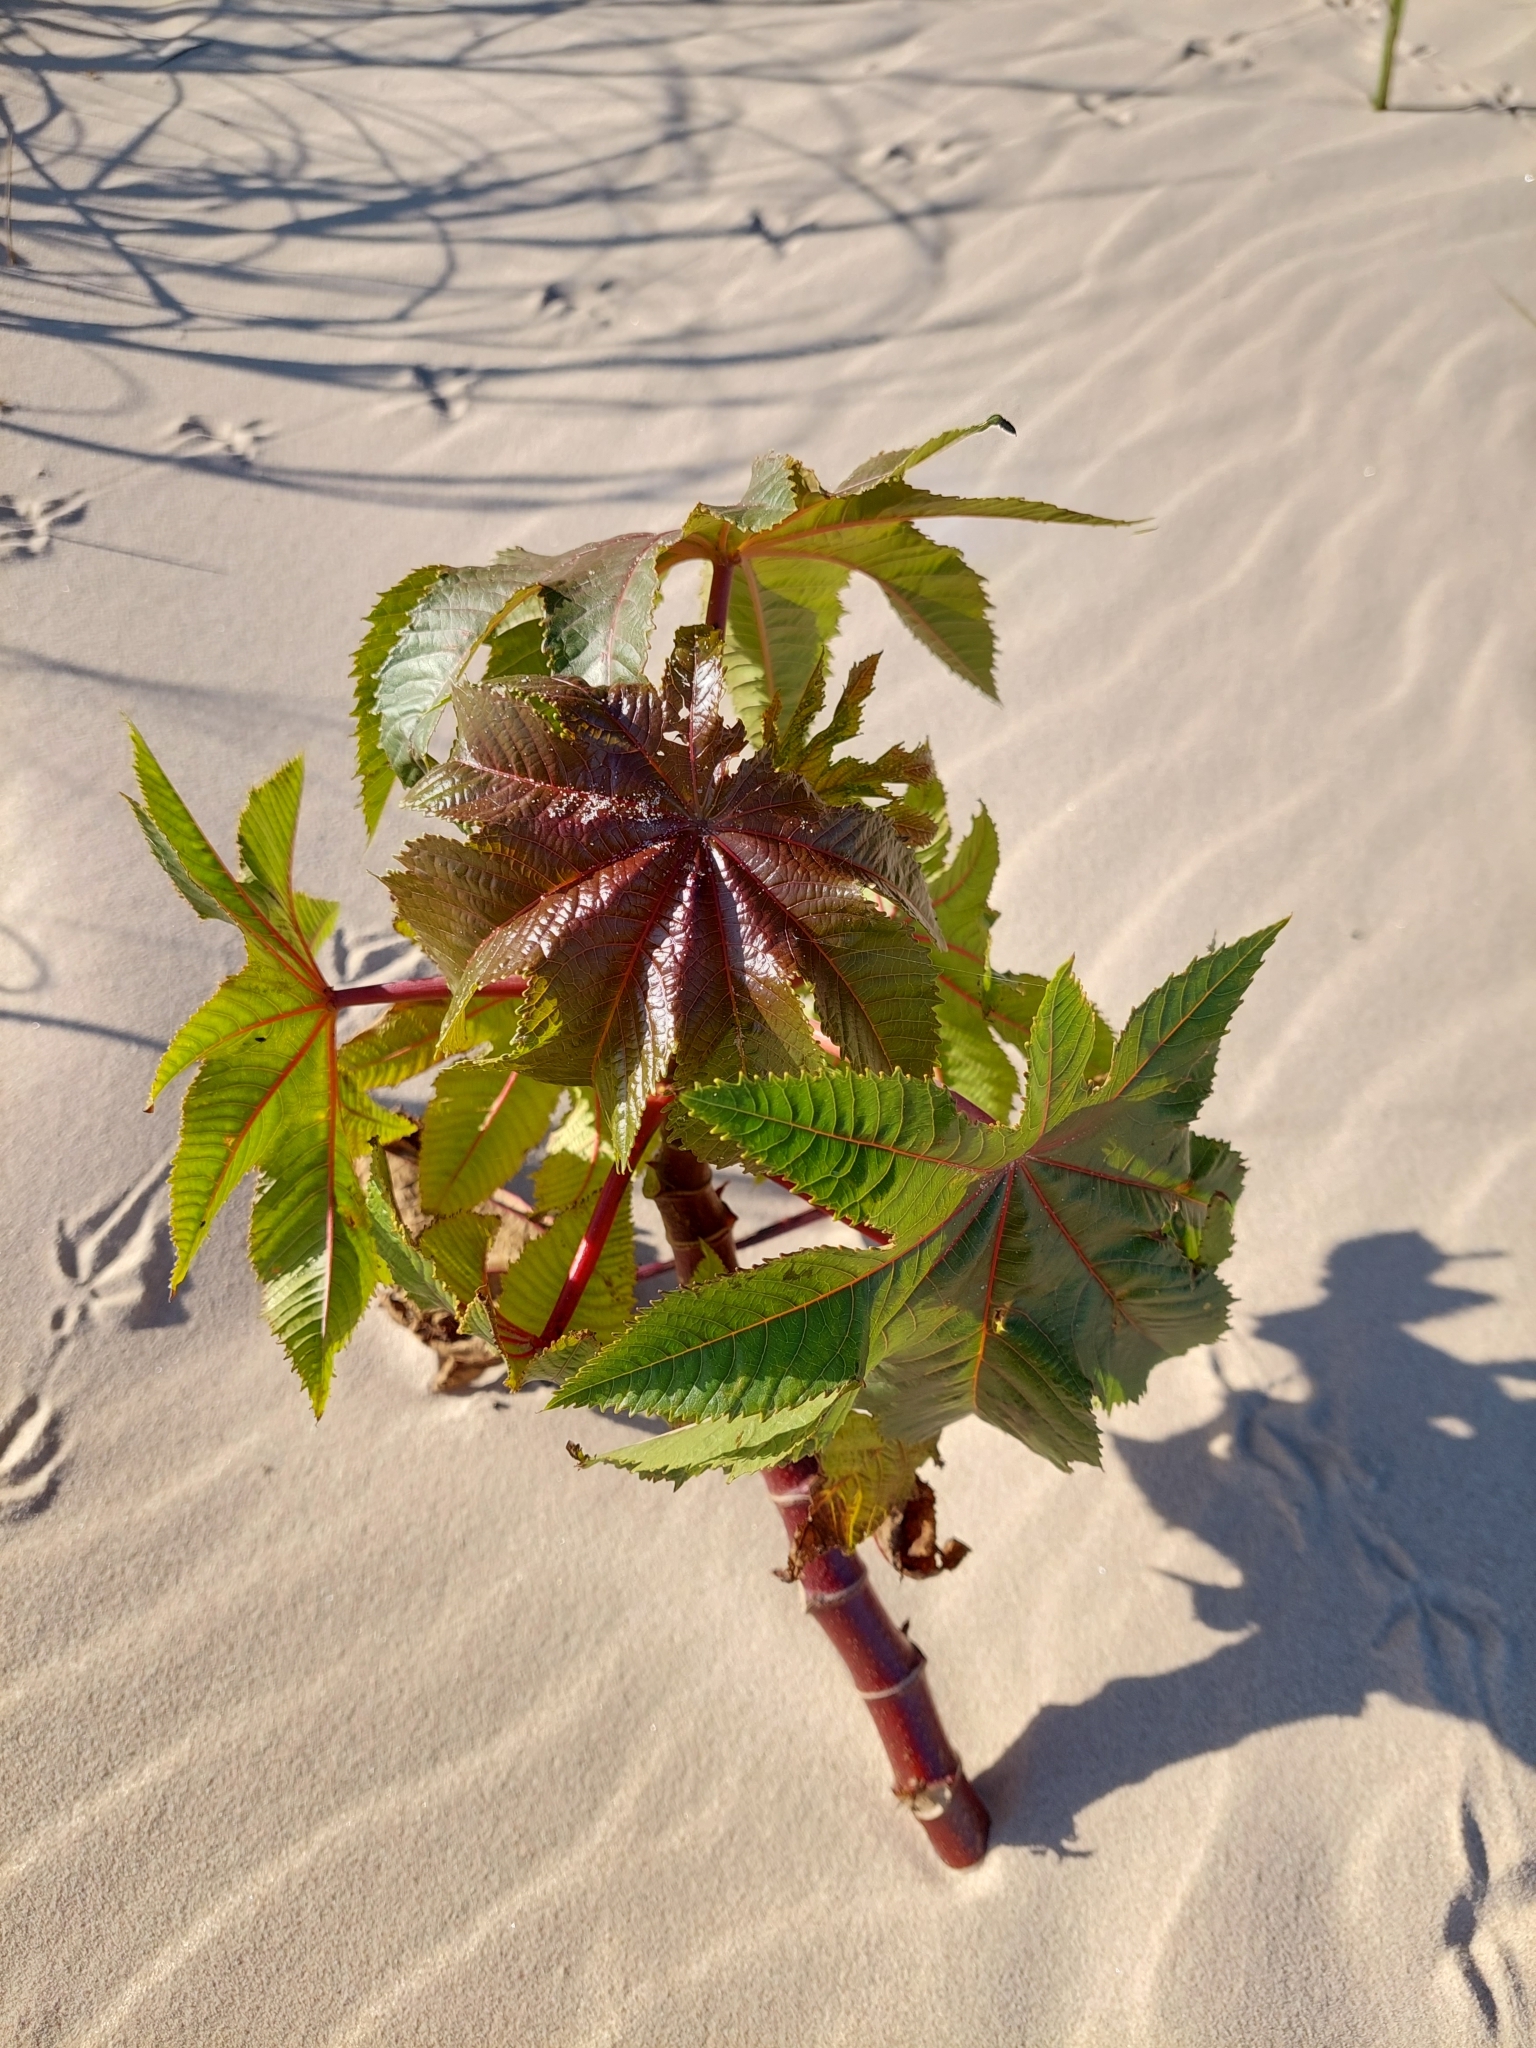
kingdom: Plantae
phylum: Tracheophyta
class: Magnoliopsida
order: Malpighiales
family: Euphorbiaceae
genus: Ricinus
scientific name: Ricinus communis
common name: Castor-oil-plant
